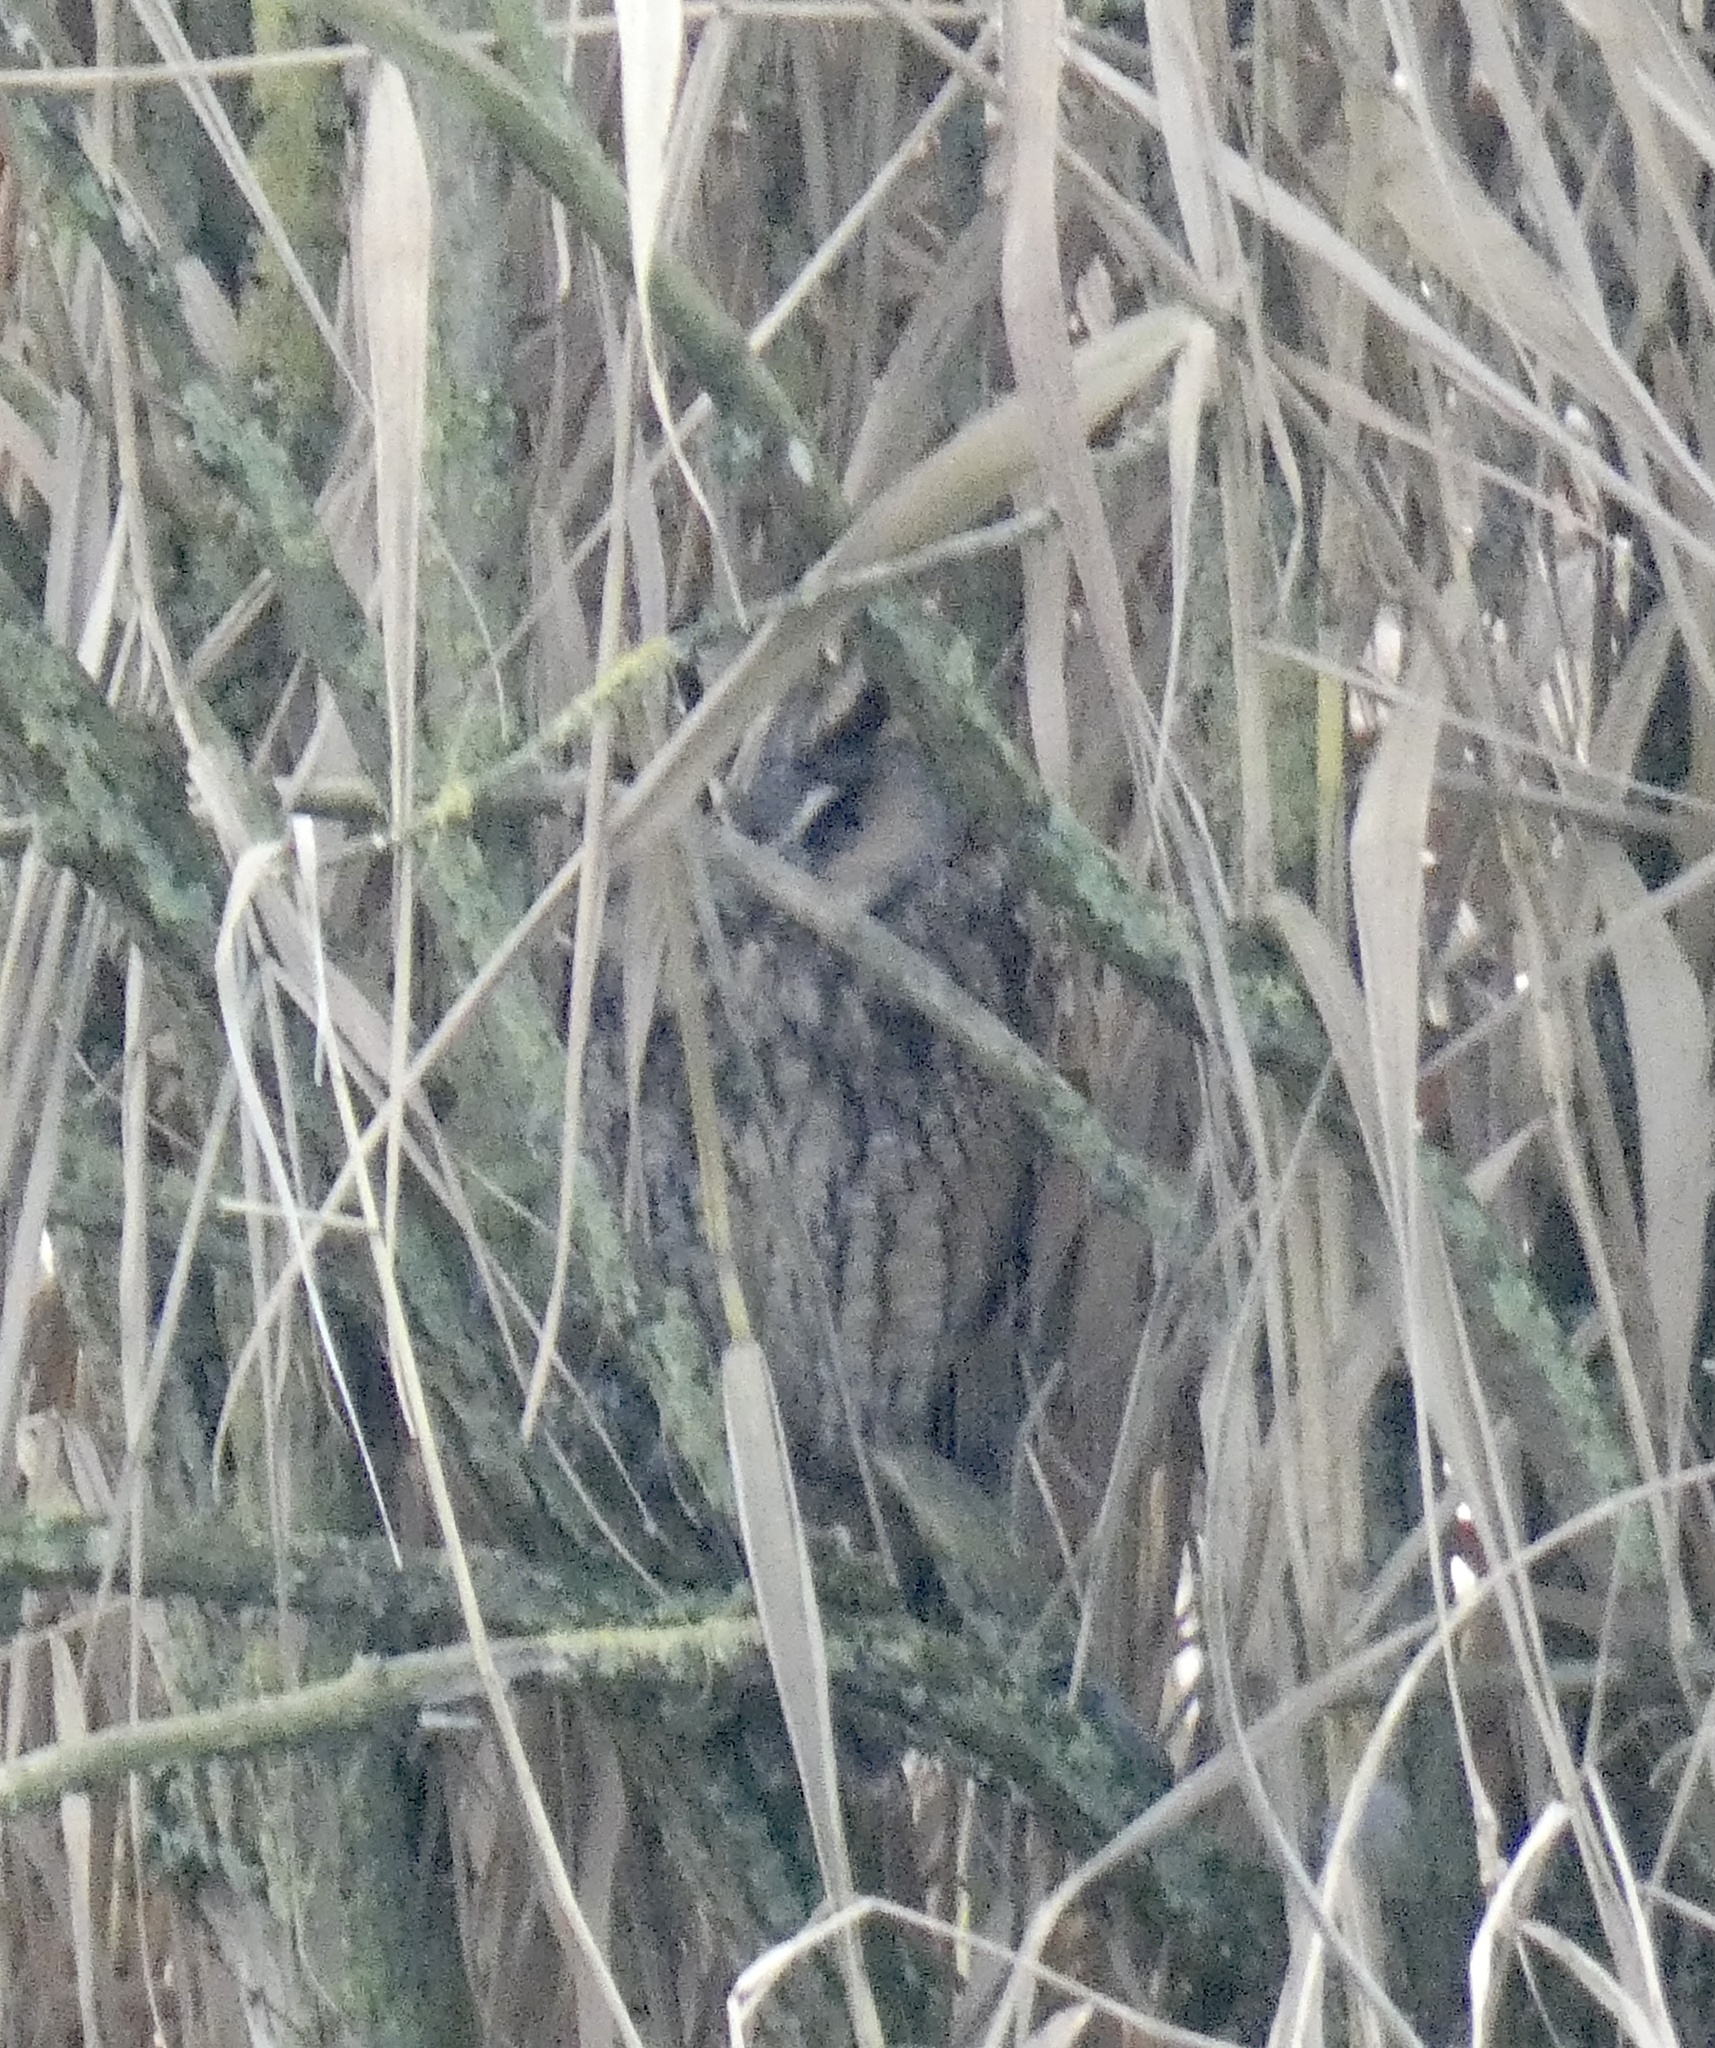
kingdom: Animalia
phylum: Chordata
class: Aves
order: Strigiformes
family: Strigidae
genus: Asio
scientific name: Asio otus
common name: Long-eared owl
